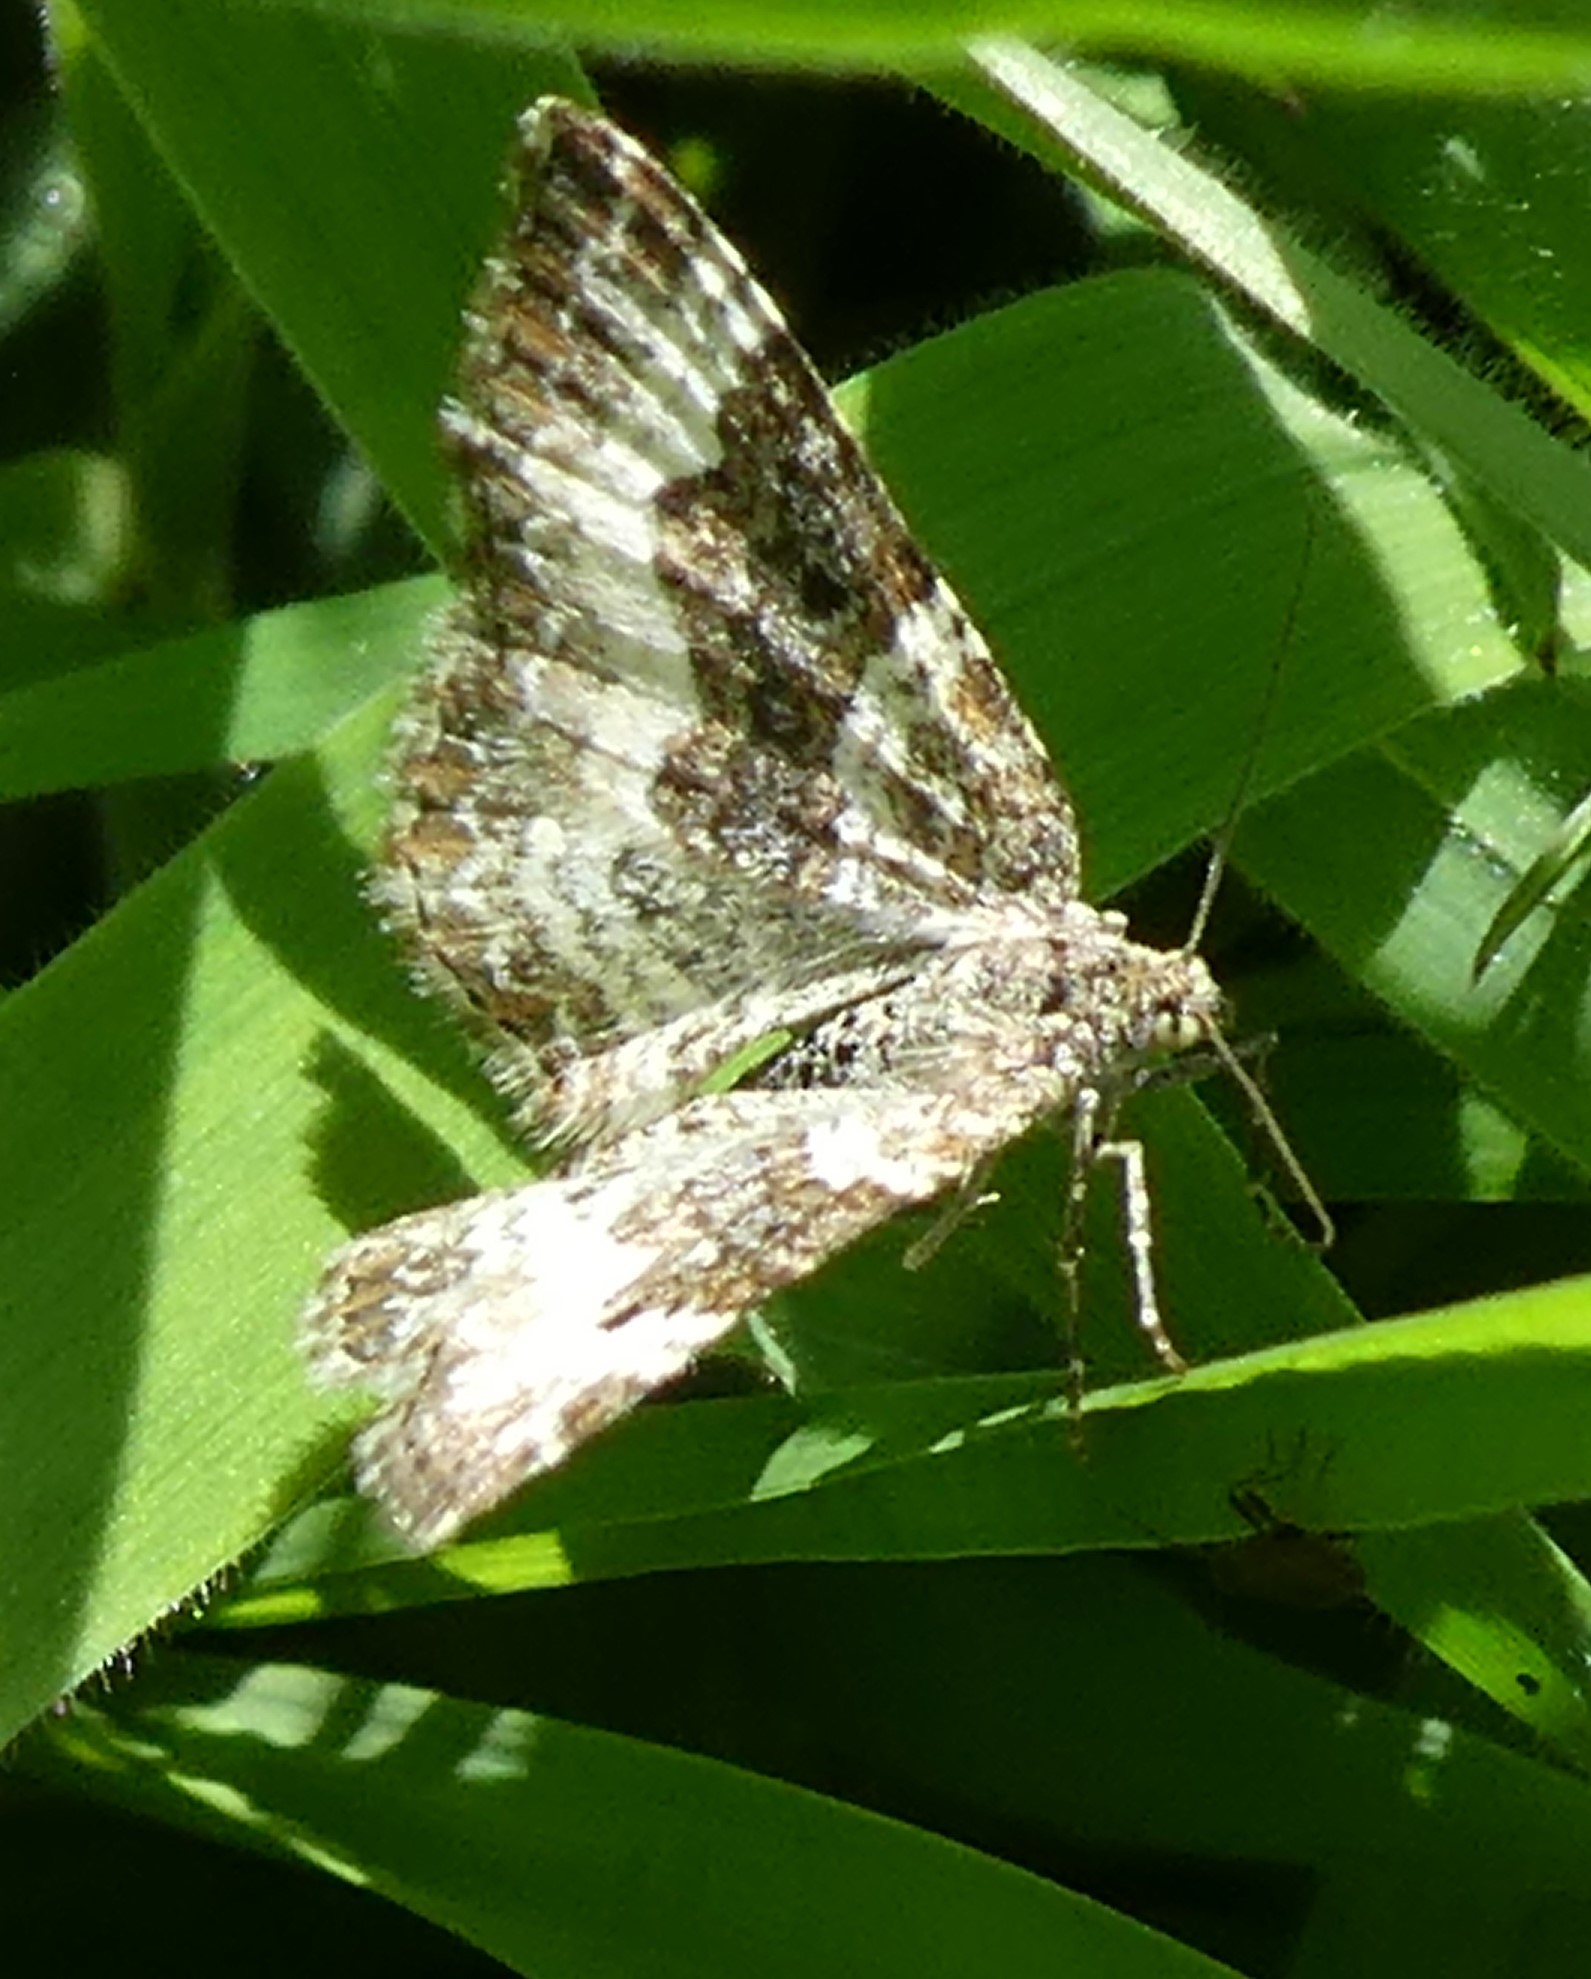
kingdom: Animalia
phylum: Arthropoda
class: Insecta
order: Lepidoptera
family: Geometridae
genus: Epirrhoe
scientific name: Epirrhoe alternata
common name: Common carpet
